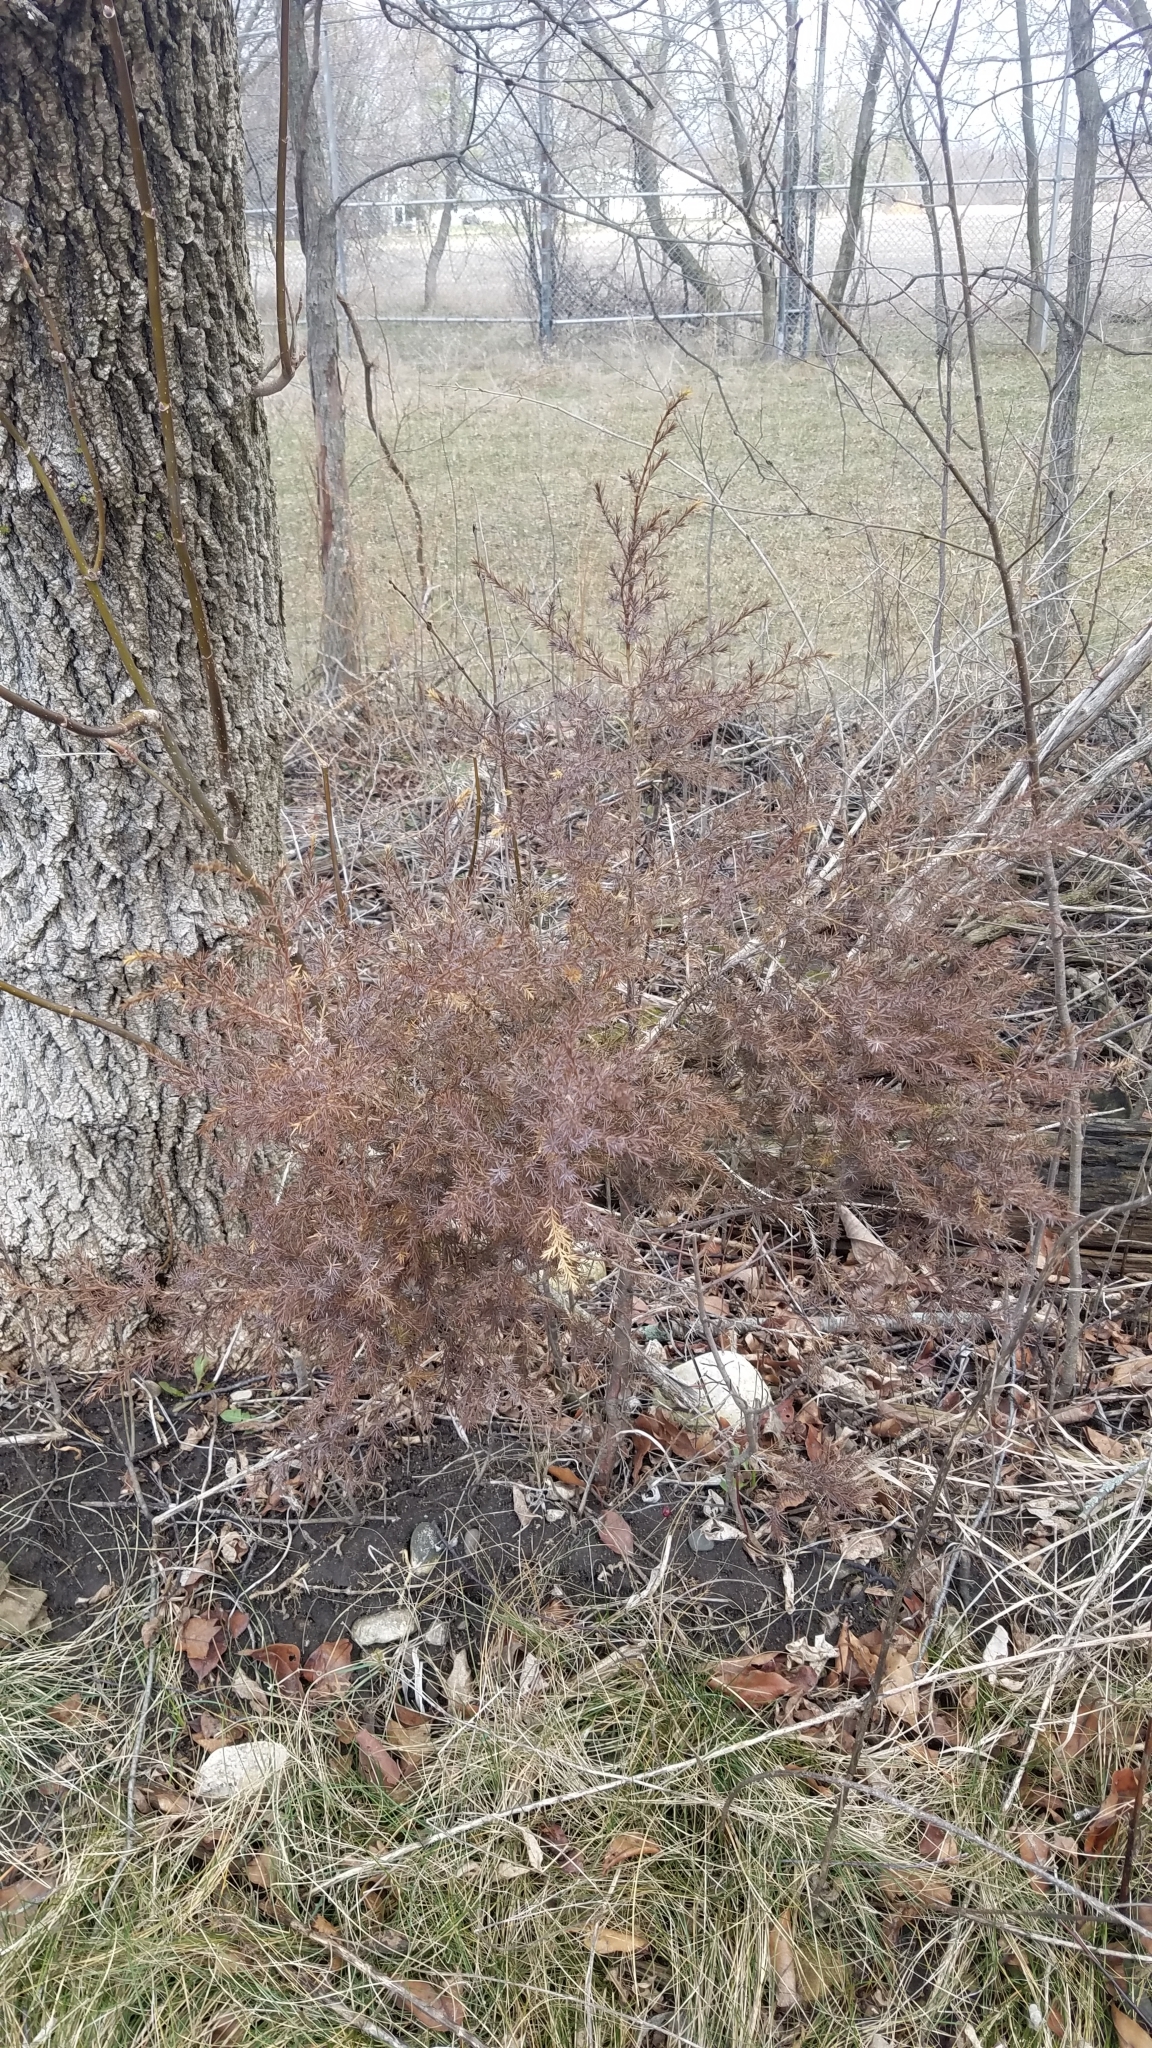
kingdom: Plantae
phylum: Tracheophyta
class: Pinopsida
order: Pinales
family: Cupressaceae
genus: Juniperus
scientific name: Juniperus virginiana
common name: Red juniper
